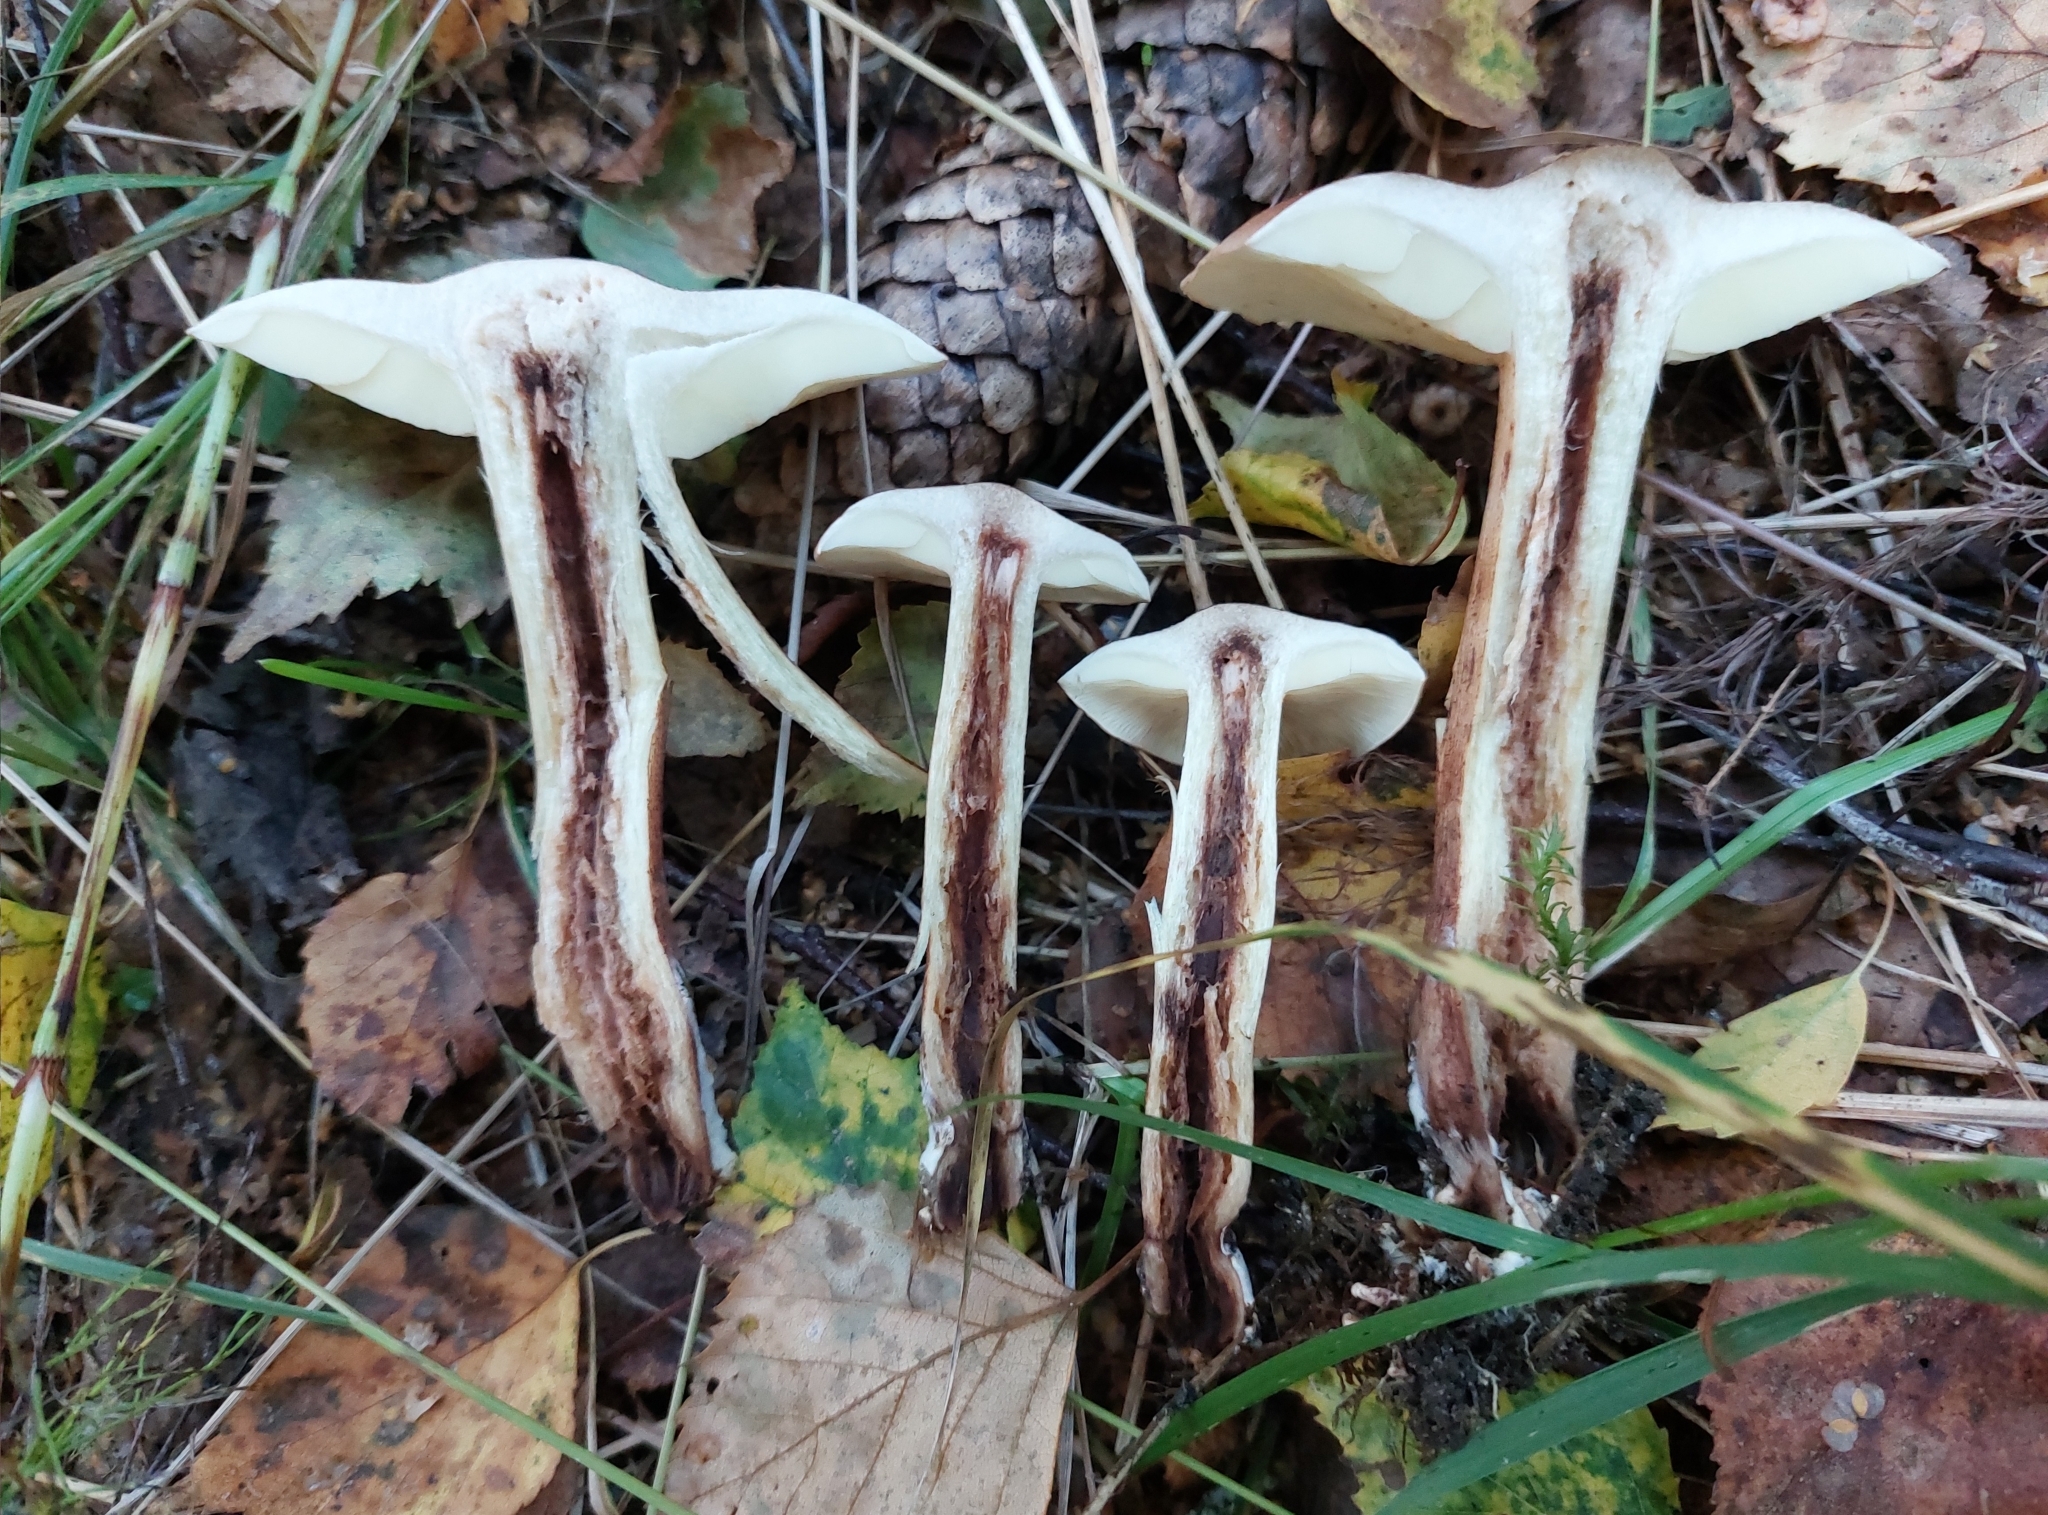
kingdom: Fungi
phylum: Basidiomycota
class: Agaricomycetes
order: Agaricales
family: Tricholomataceae
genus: Tricholoma
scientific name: Tricholoma fulvum
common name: Birch knight
